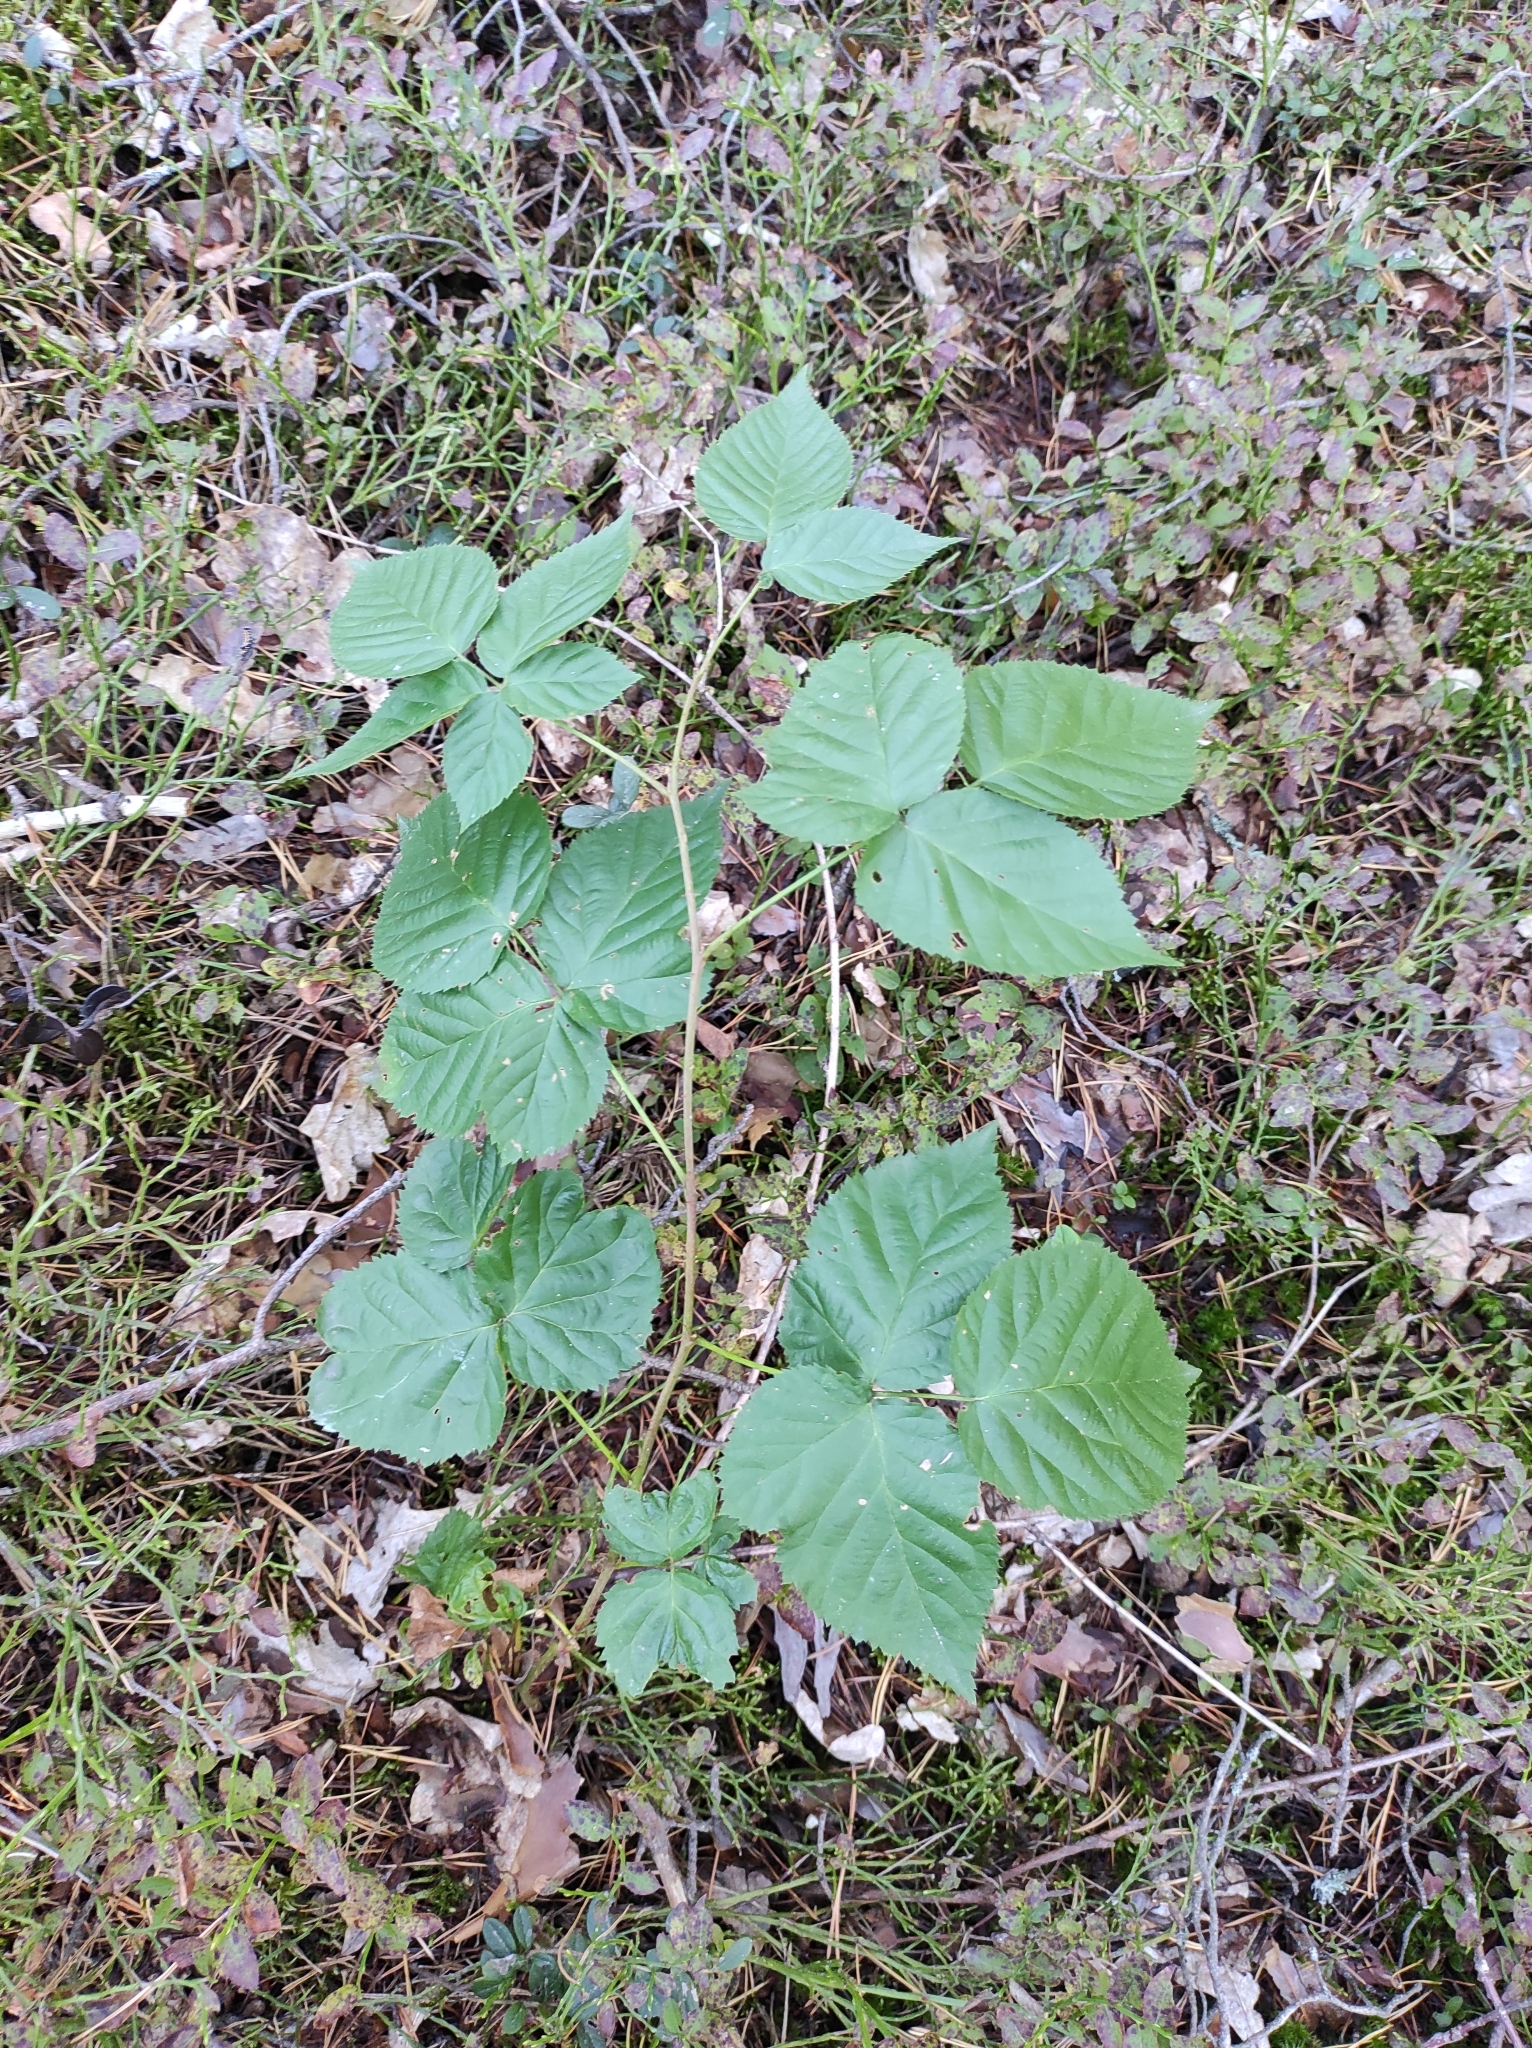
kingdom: Plantae
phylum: Tracheophyta
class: Magnoliopsida
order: Rosales
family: Rosaceae
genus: Rubus
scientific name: Rubus polonicus
